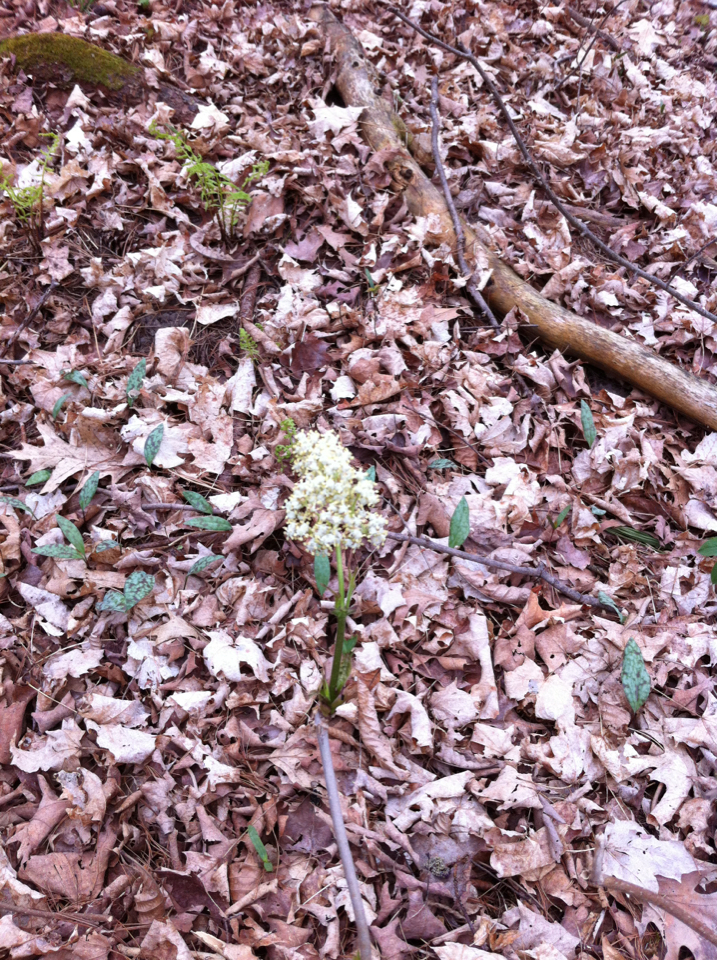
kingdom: Plantae
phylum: Tracheophyta
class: Magnoliopsida
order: Dipsacales
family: Viburnaceae
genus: Sambucus
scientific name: Sambucus racemosa
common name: Red-berried elder
